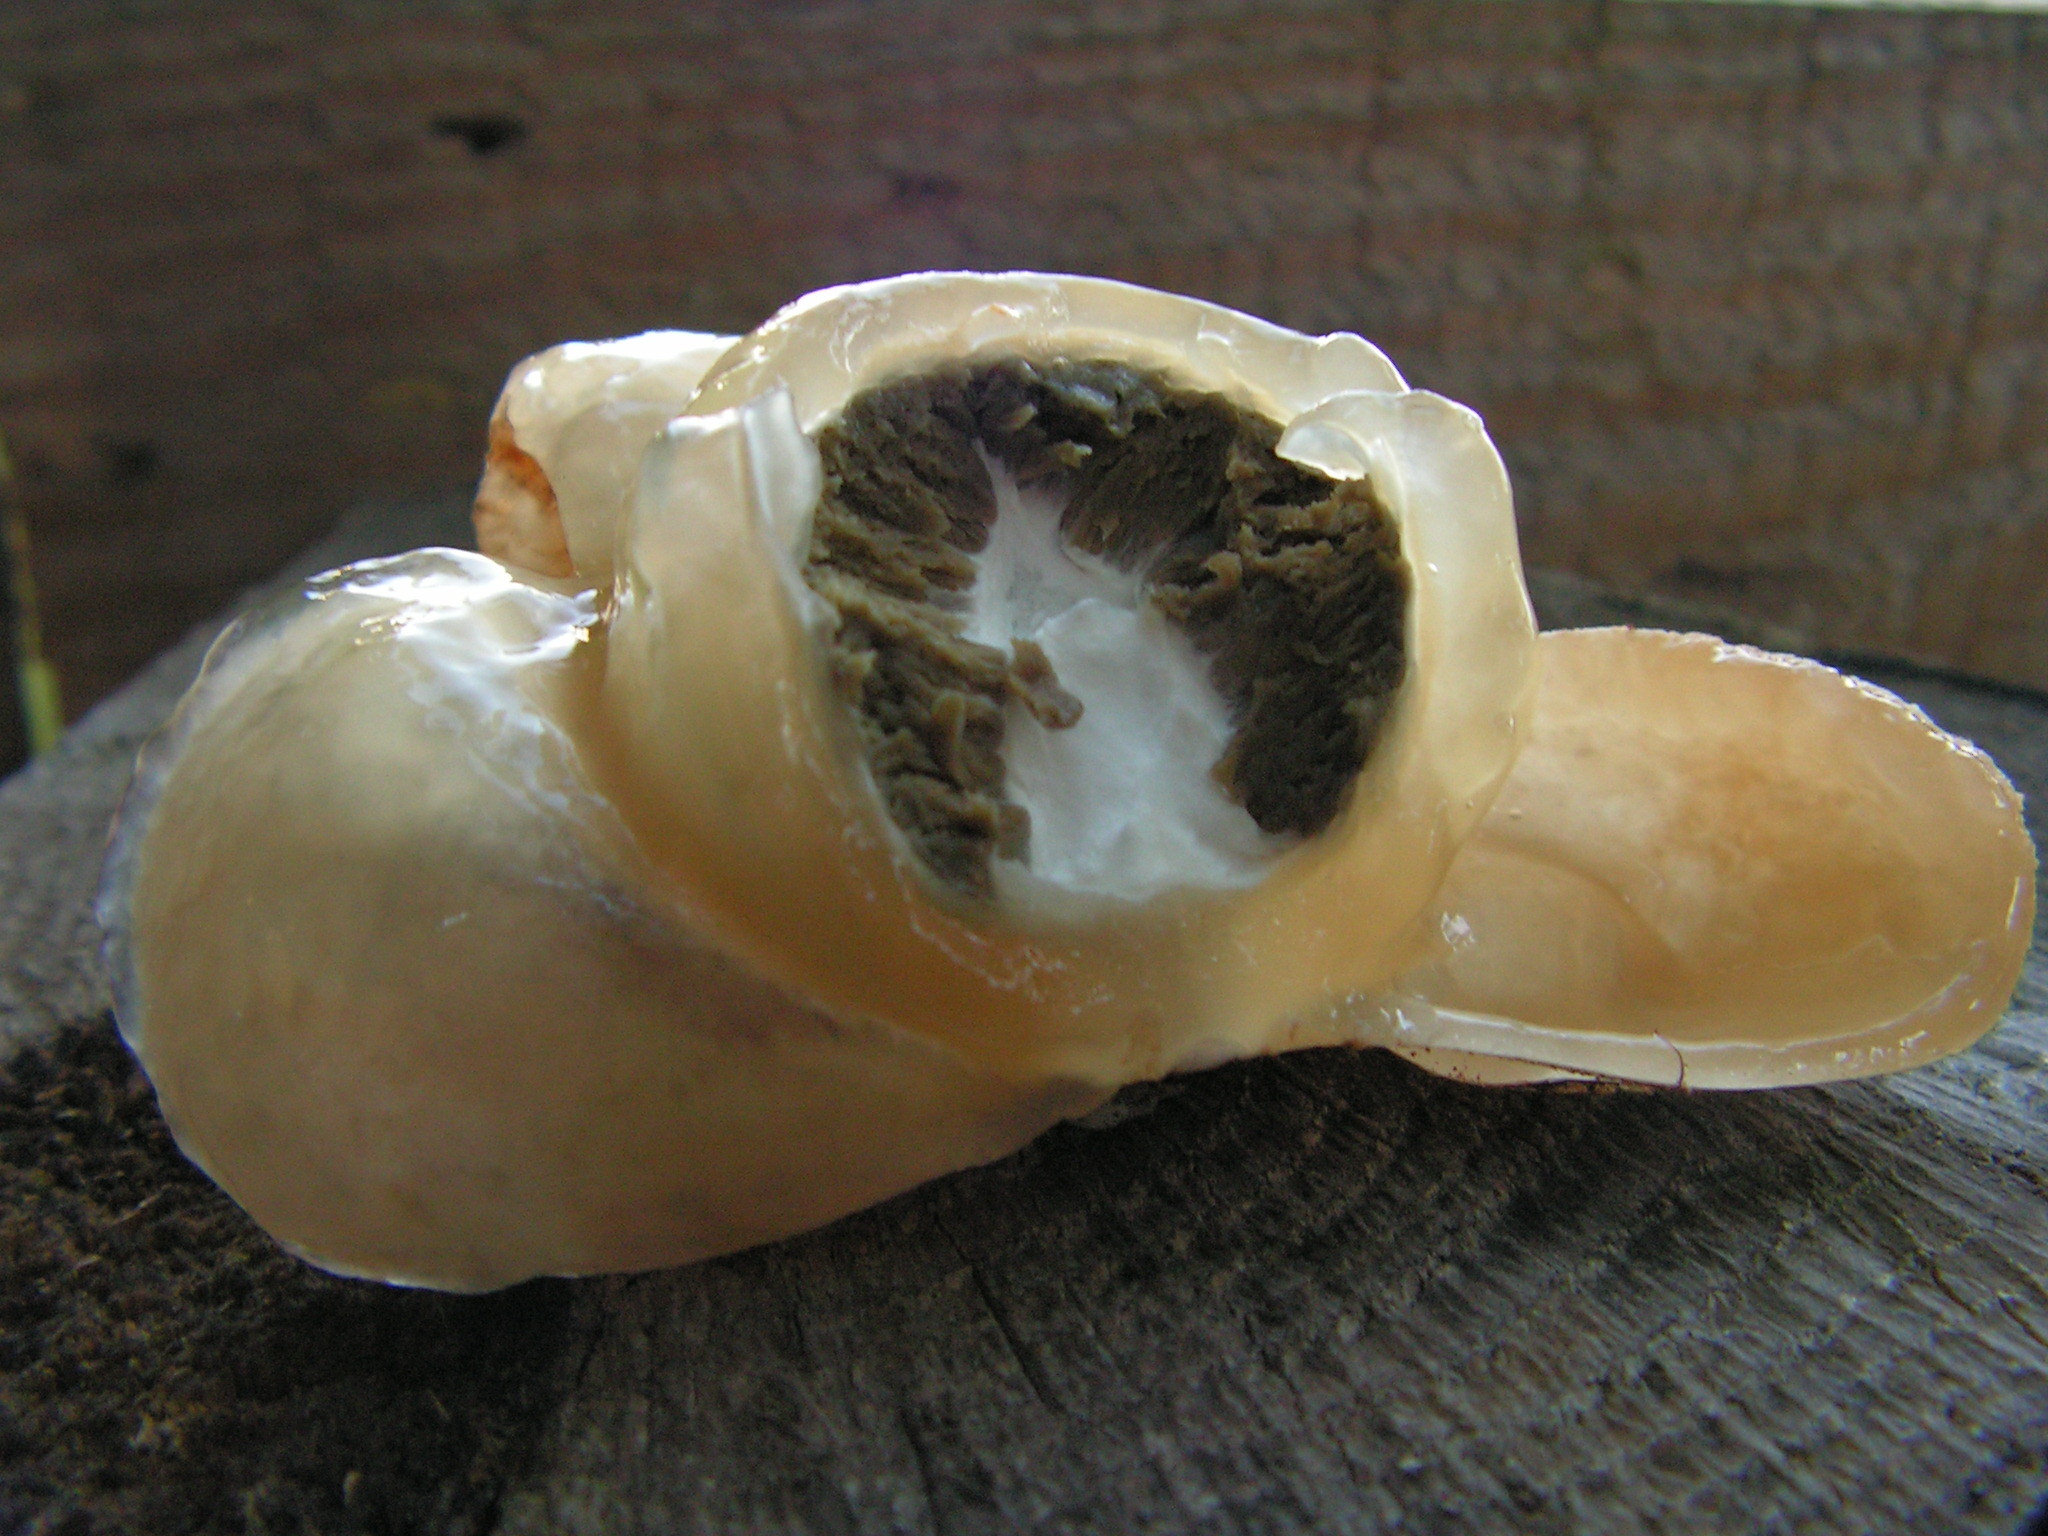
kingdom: Fungi
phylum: Basidiomycota
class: Agaricomycetes
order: Phallales
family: Phallaceae
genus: Phallus
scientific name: Phallus impudicus
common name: Common stinkhorn
